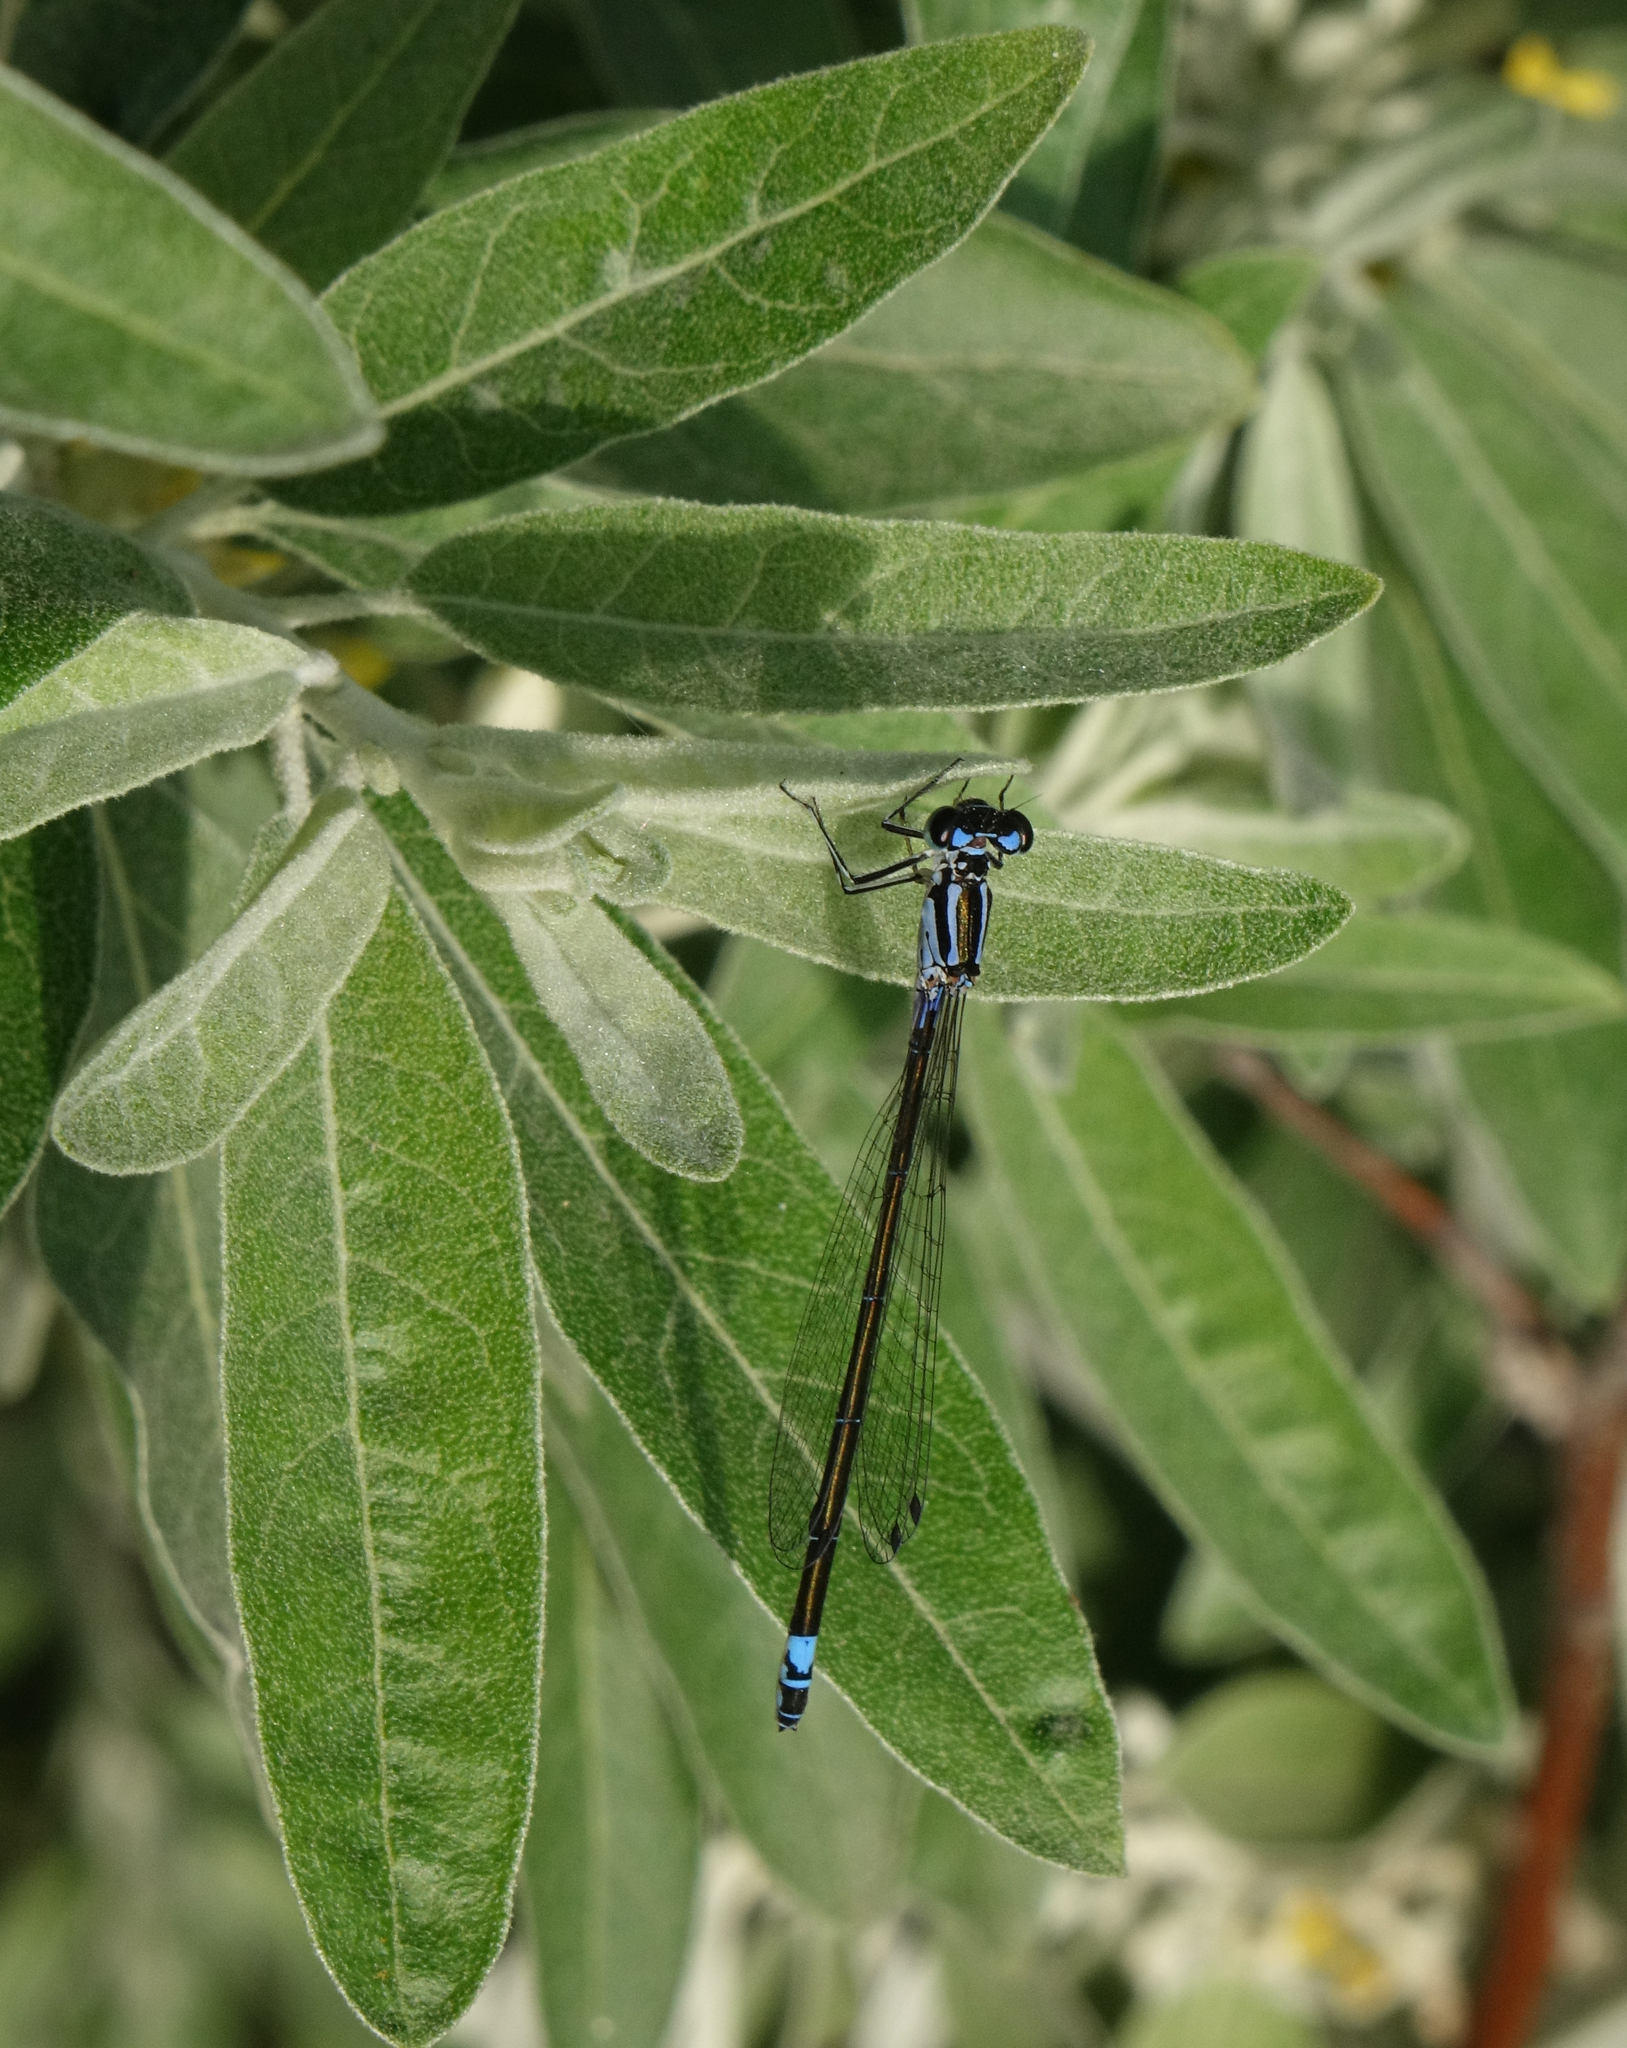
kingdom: Animalia
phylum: Arthropoda
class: Insecta
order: Odonata
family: Coenagrionidae
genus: Coenagrion
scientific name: Coenagrion pulchellum
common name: Variable bluet
